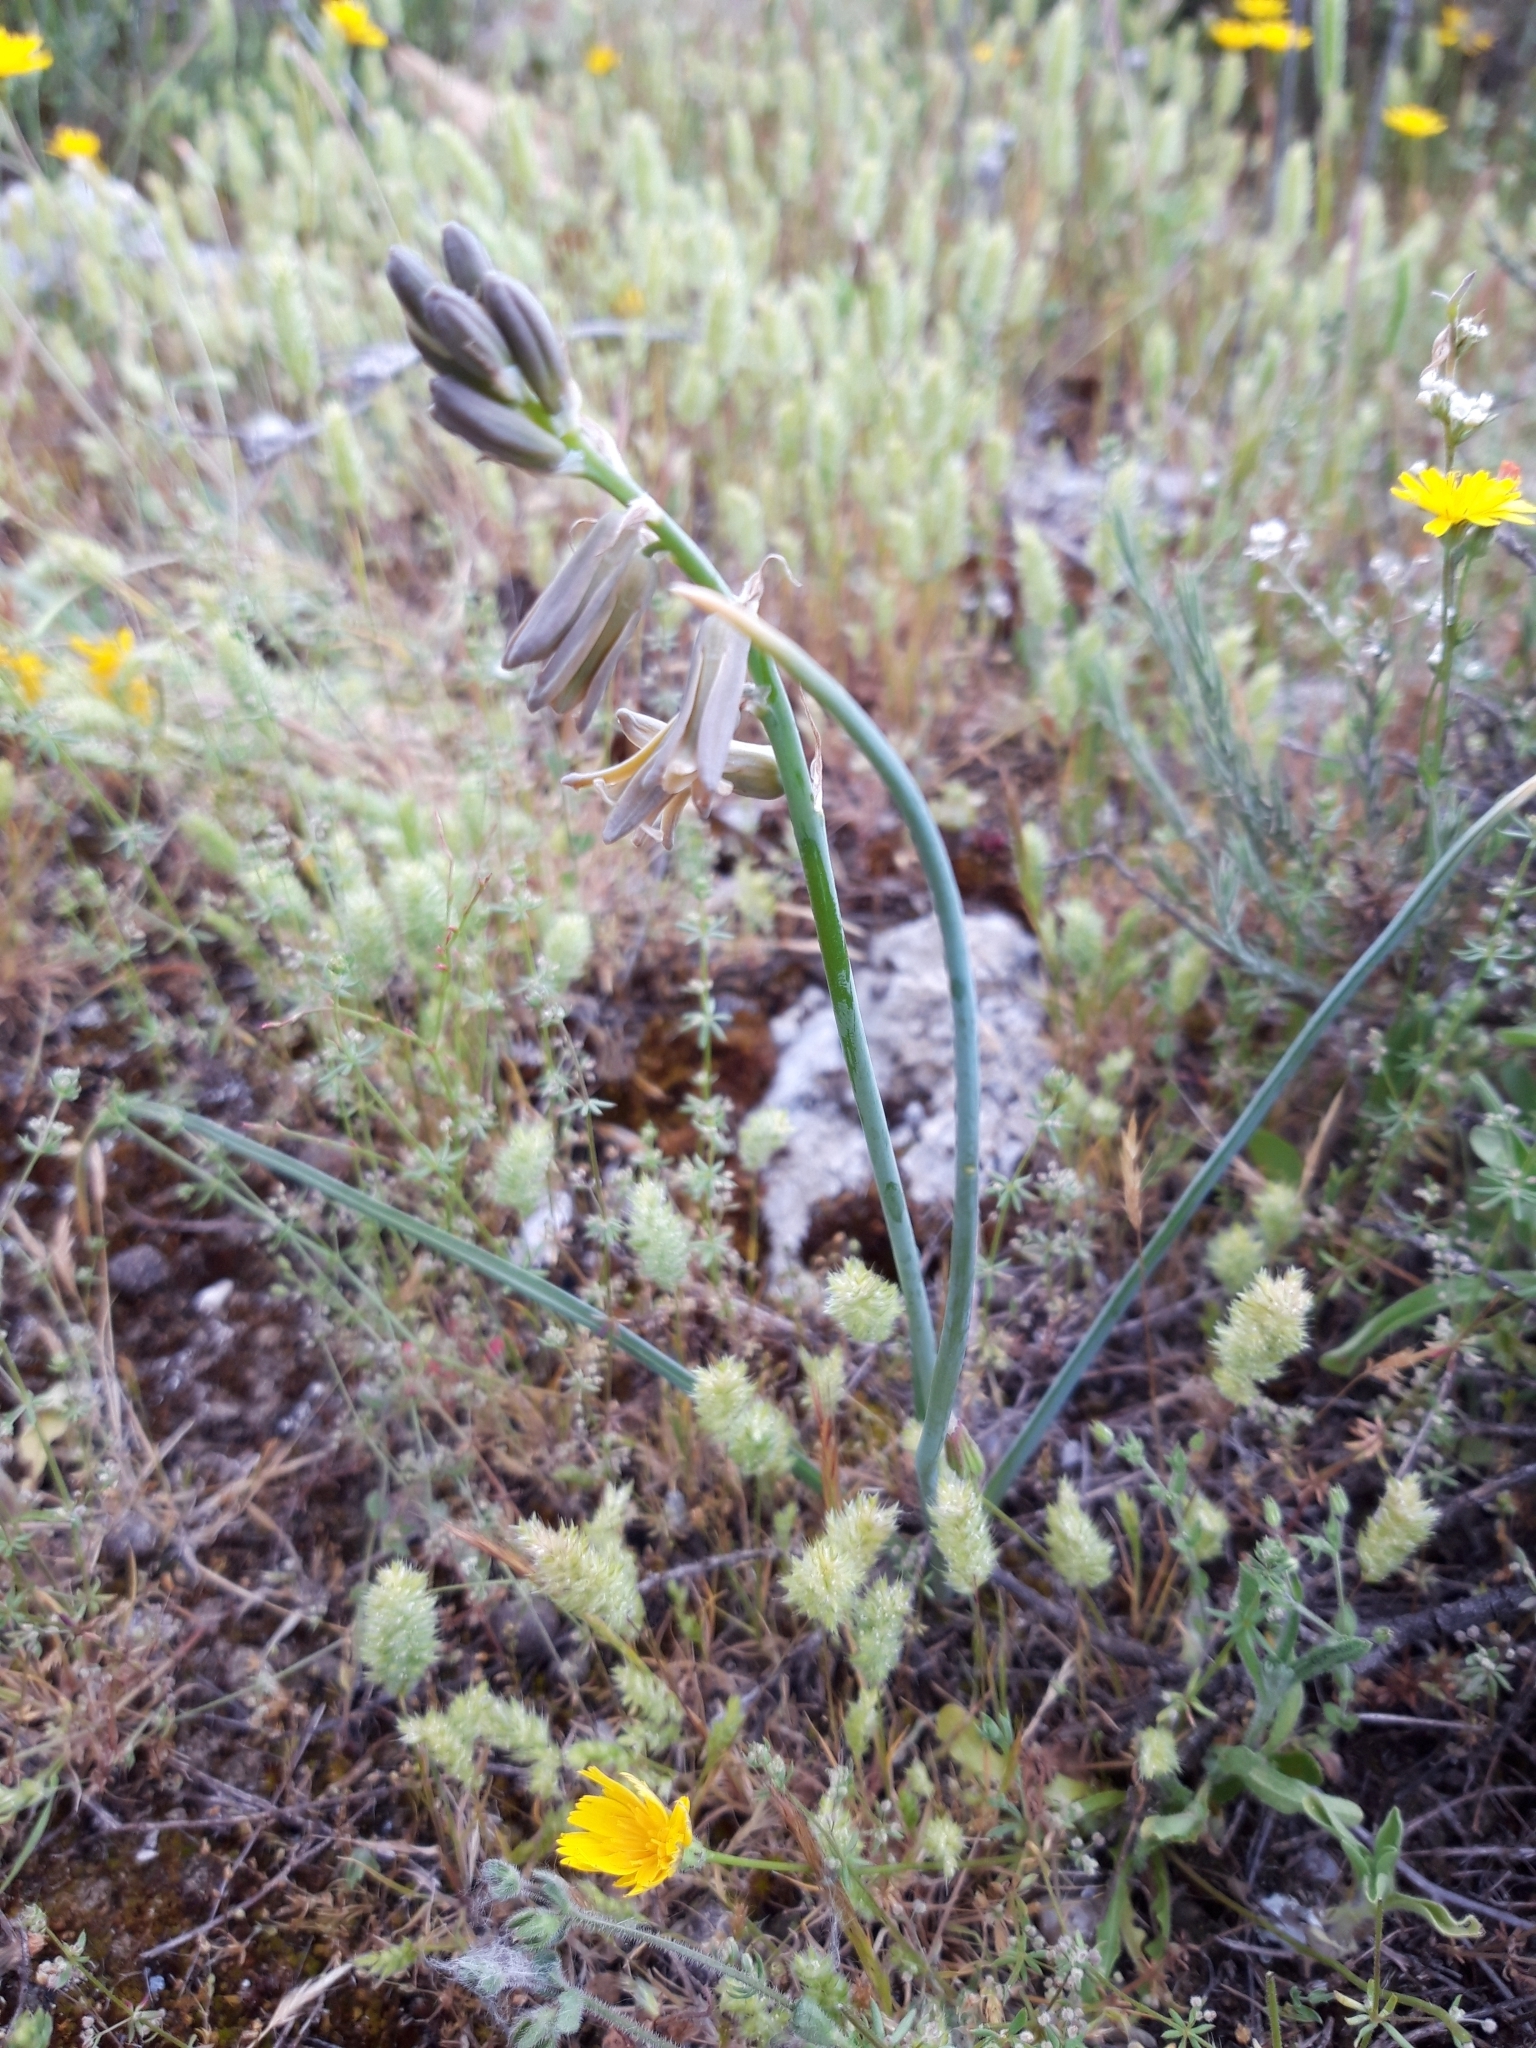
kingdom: Plantae
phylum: Tracheophyta
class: Liliopsida
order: Asparagales
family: Asparagaceae
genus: Dipcadi
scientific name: Dipcadi serotinum
